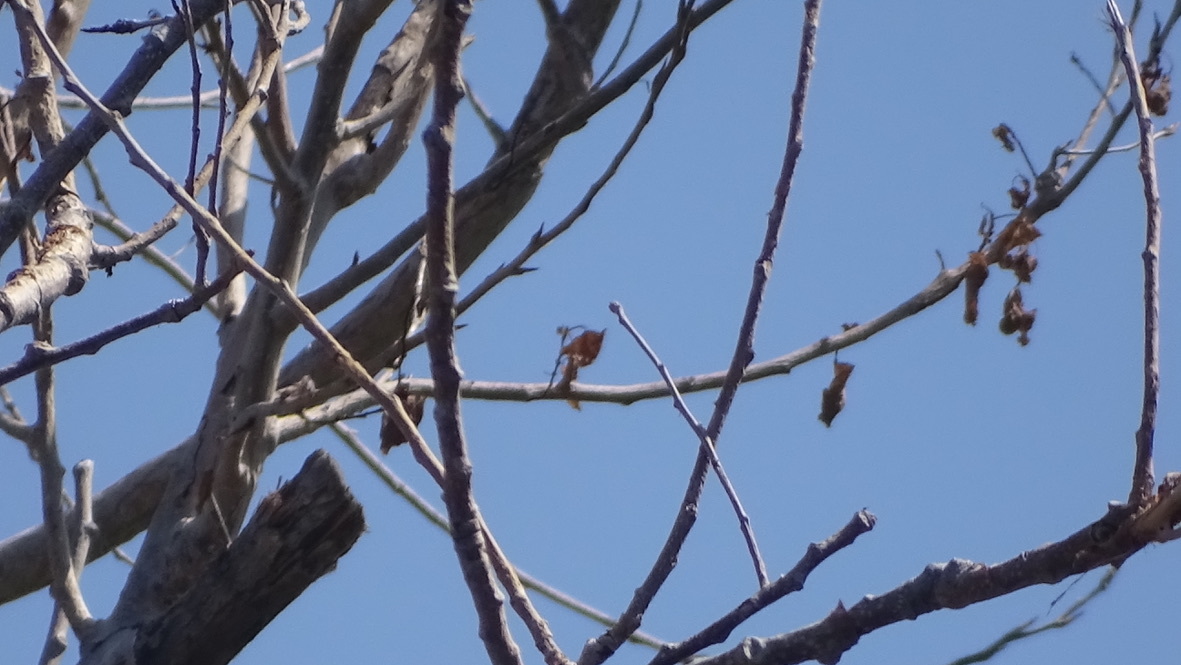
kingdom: Animalia
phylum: Chordata
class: Aves
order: Passeriformes
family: Hirundinidae
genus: Hirundo
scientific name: Hirundo rustica
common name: Barn swallow
